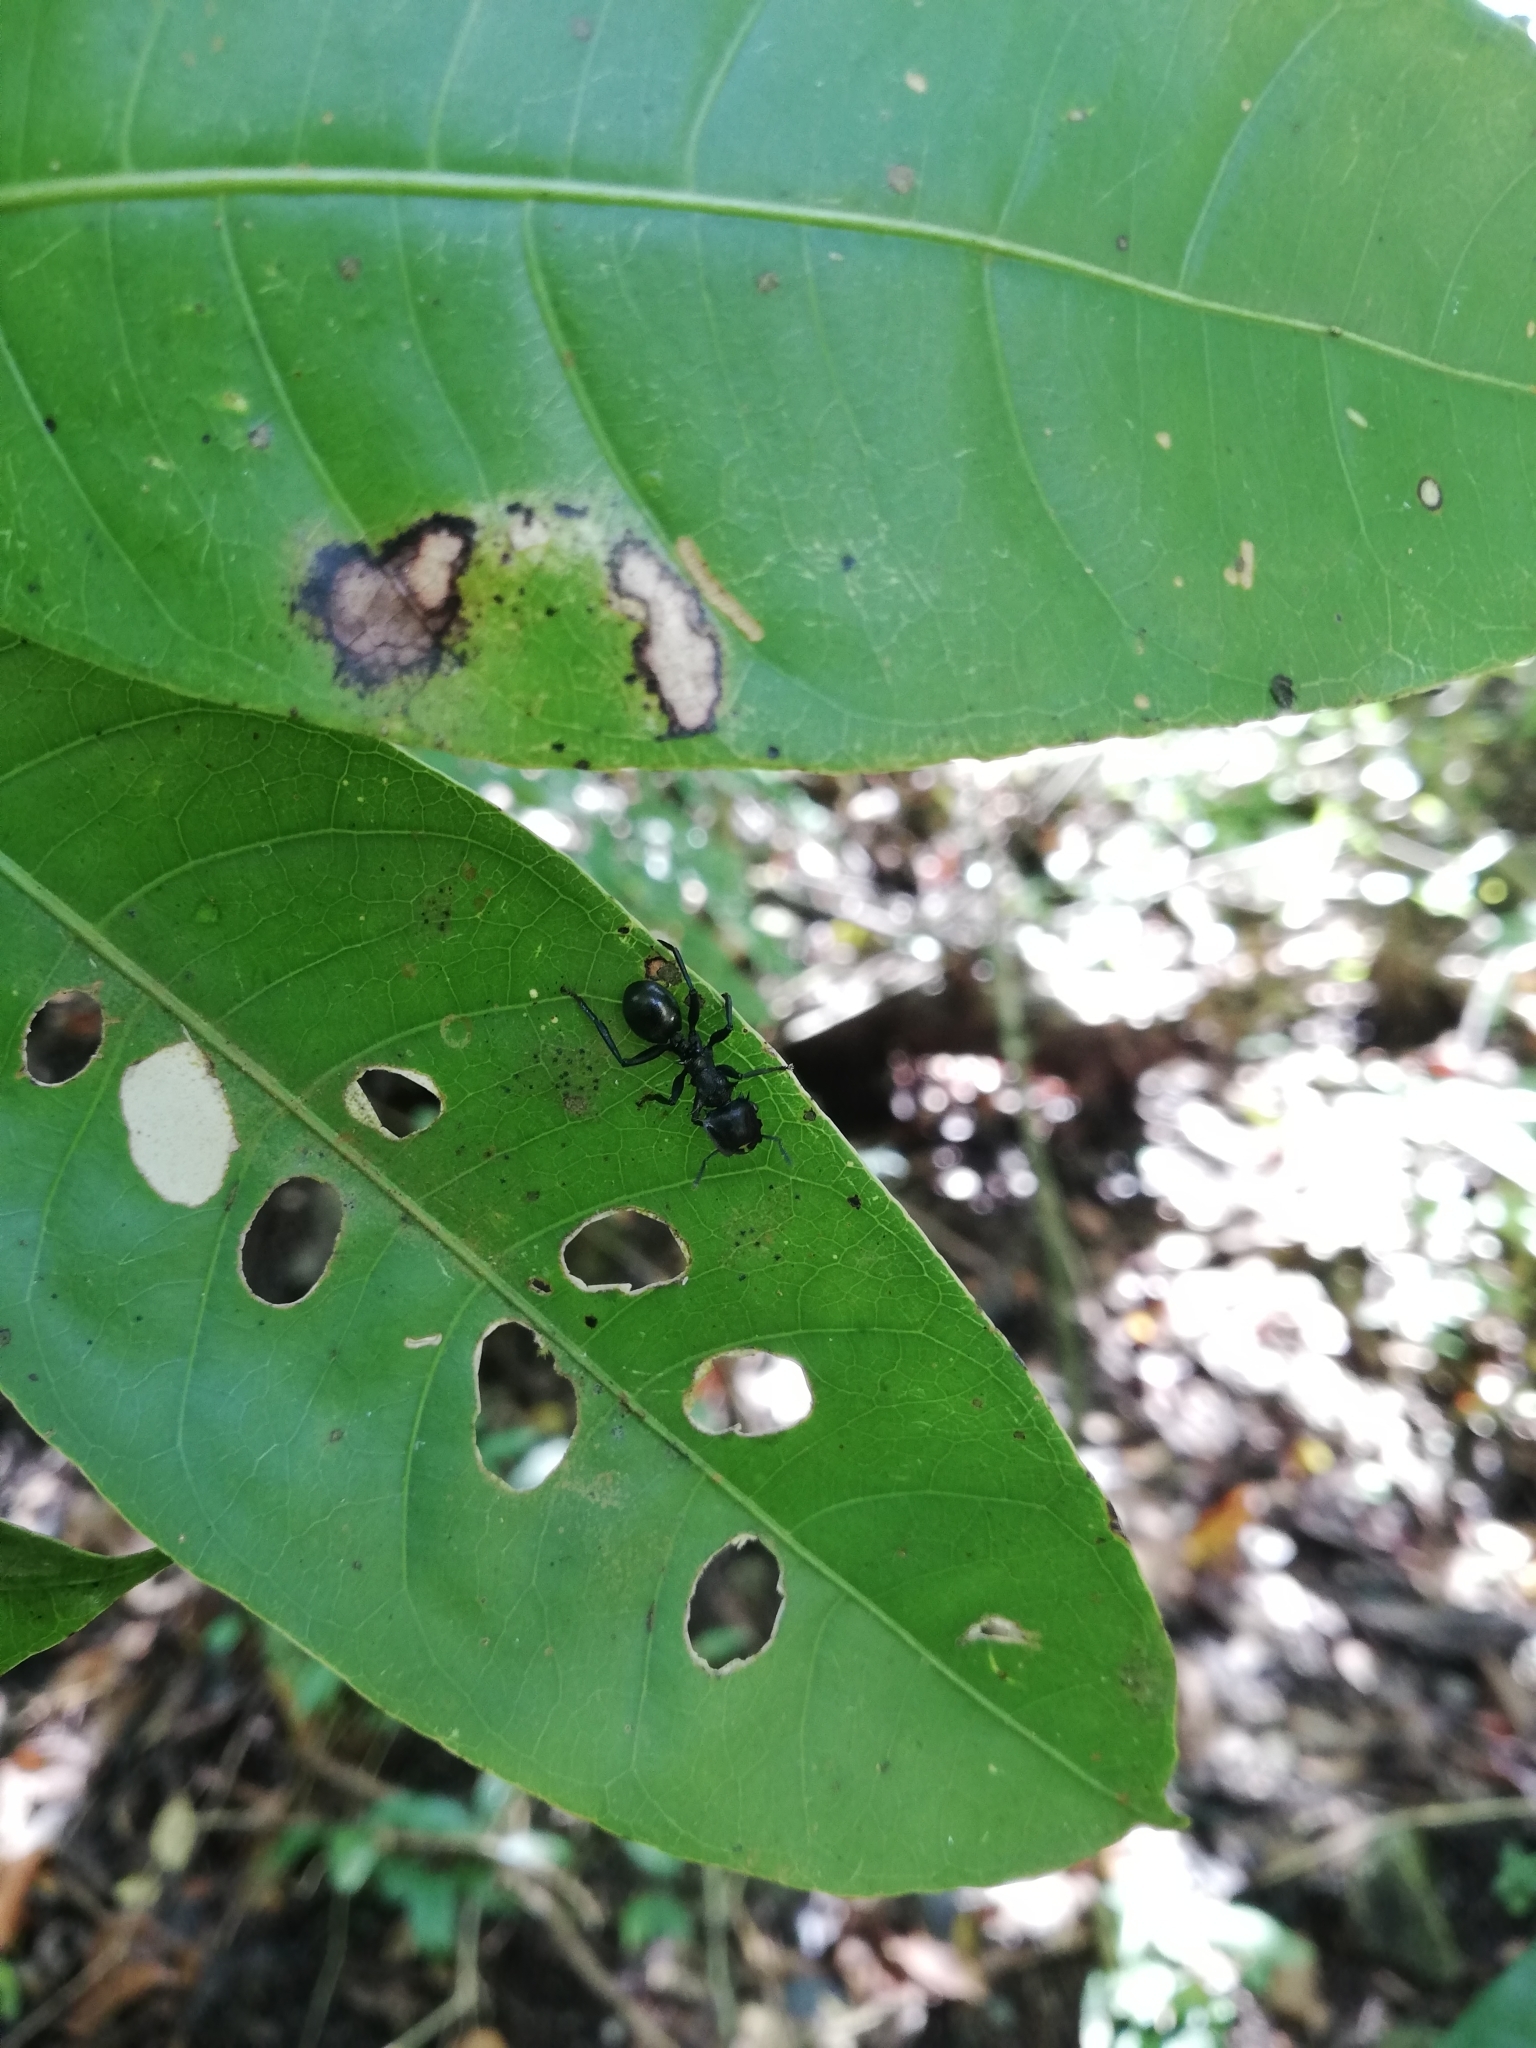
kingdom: Animalia
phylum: Arthropoda
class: Insecta
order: Hymenoptera
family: Formicidae
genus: Cephalotes
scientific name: Cephalotes atratus
